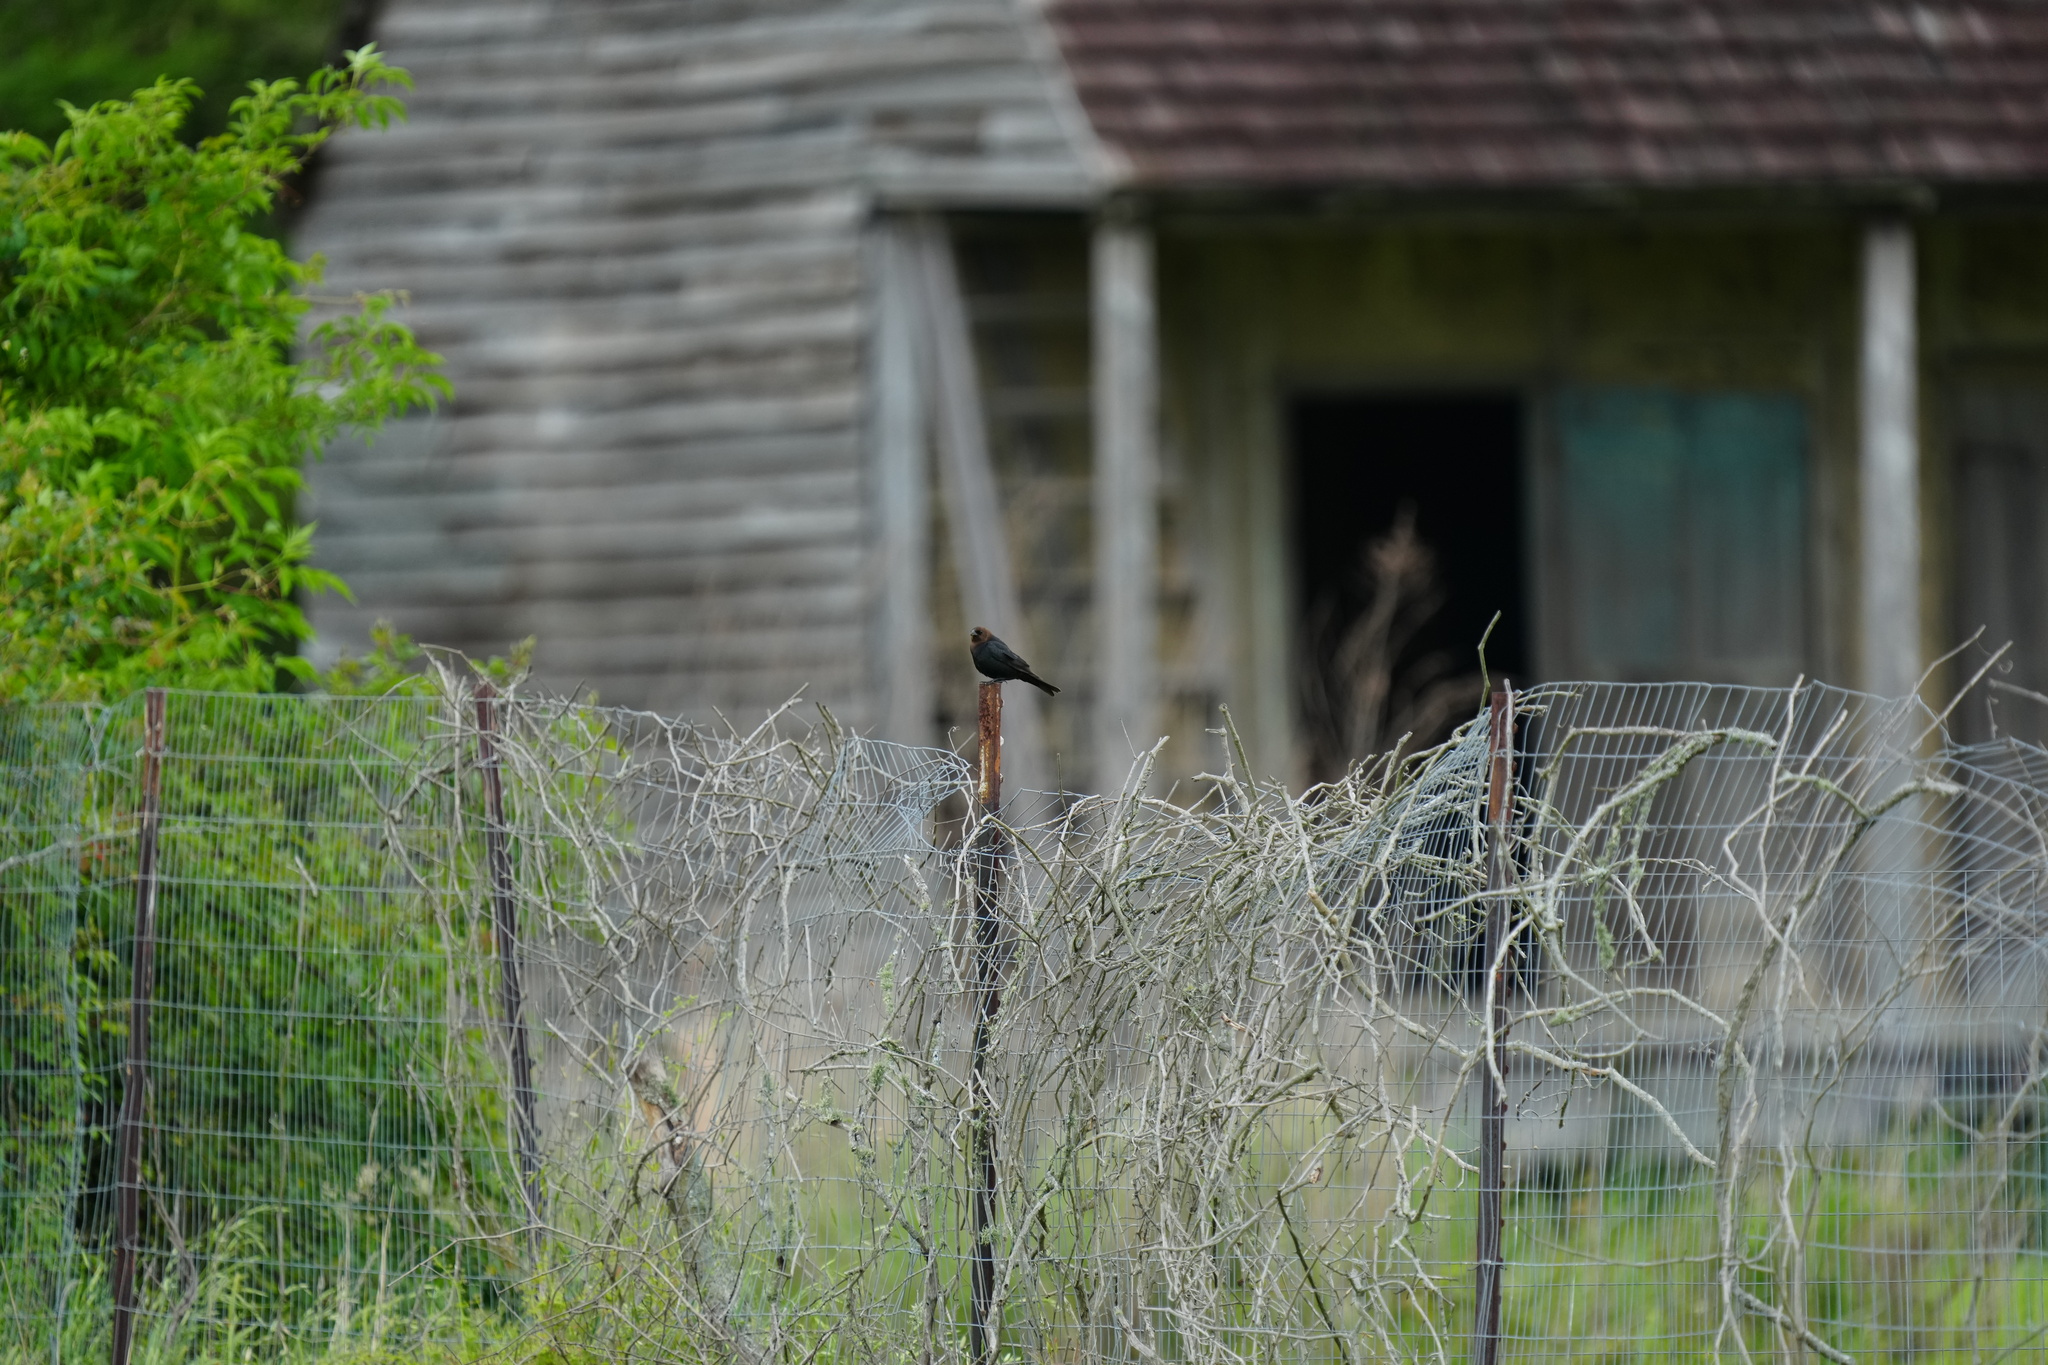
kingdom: Animalia
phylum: Chordata
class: Aves
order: Passeriformes
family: Icteridae
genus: Molothrus
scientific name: Molothrus ater
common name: Brown-headed cowbird
